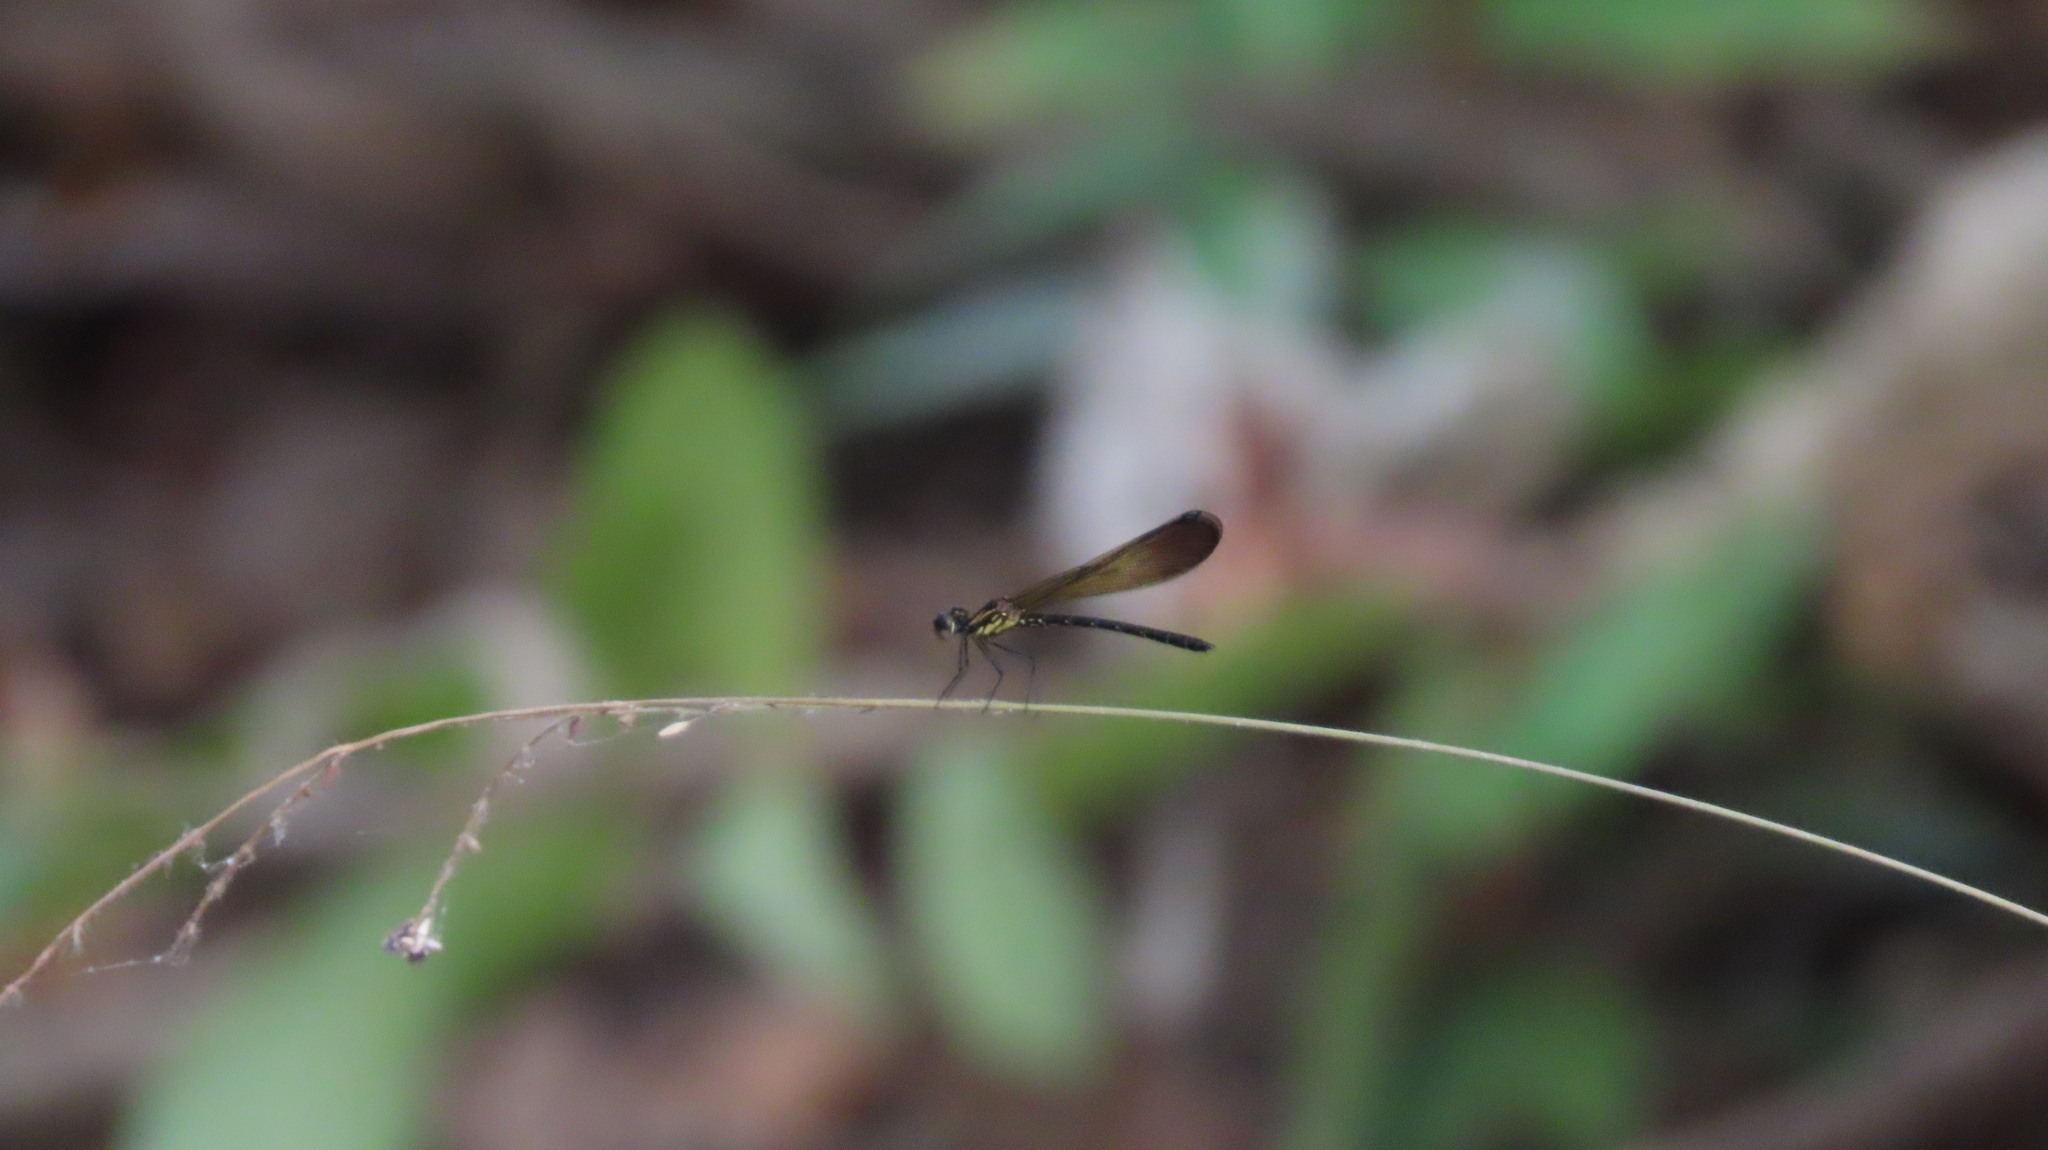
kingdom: Animalia
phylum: Arthropoda
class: Insecta
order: Odonata
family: Chlorocyphidae
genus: Heliocypha
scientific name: Heliocypha bisignata
